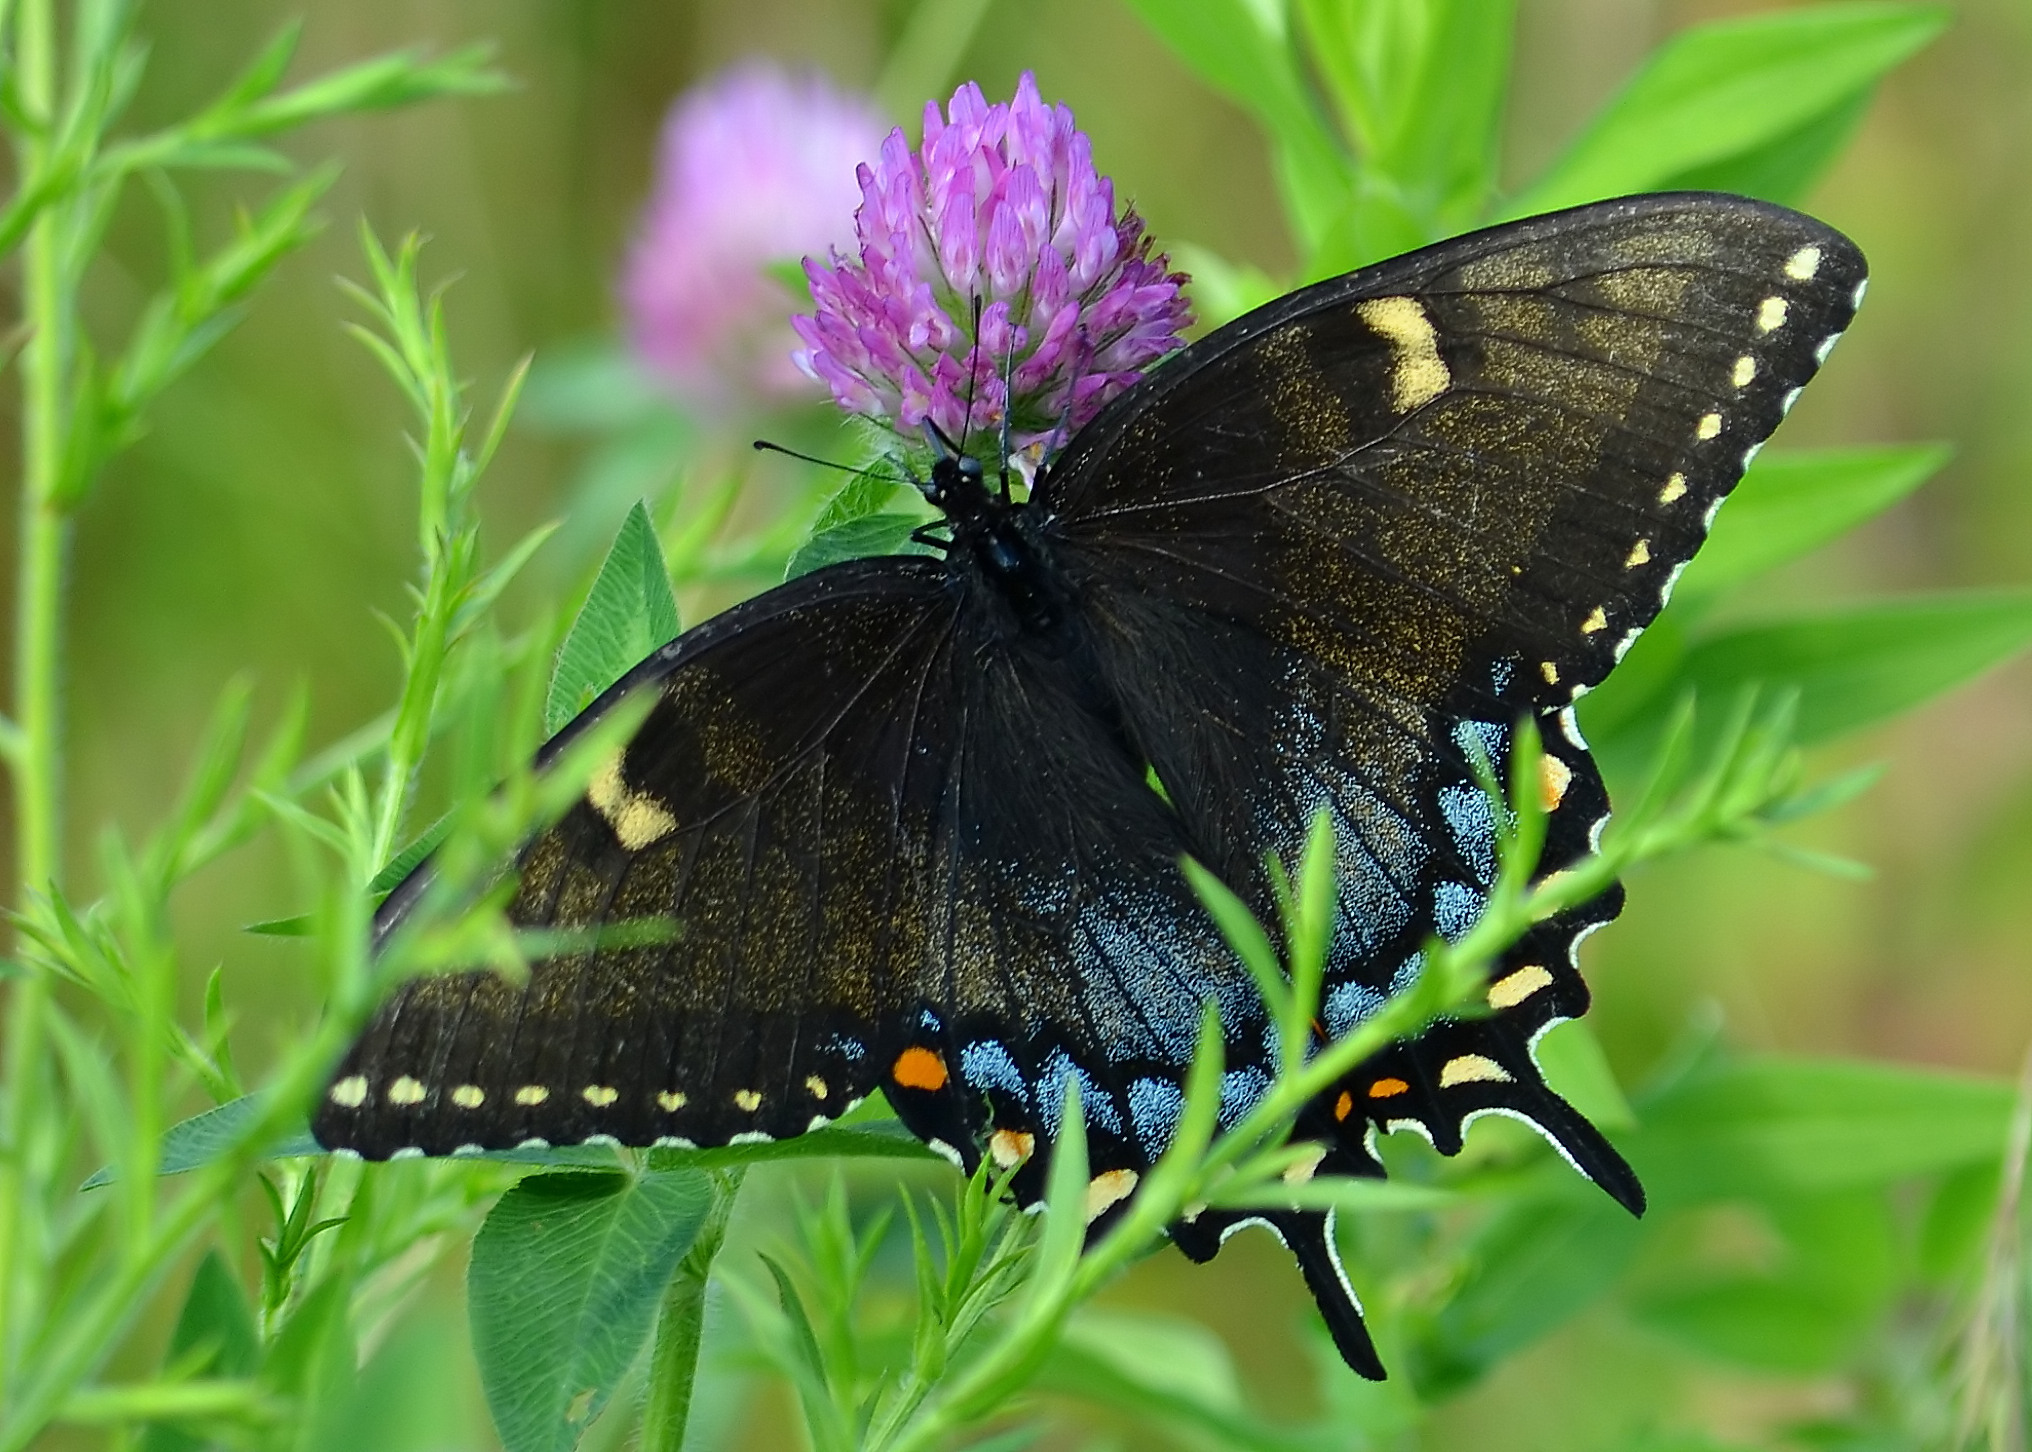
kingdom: Animalia
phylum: Arthropoda
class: Insecta
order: Lepidoptera
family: Papilionidae
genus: Papilio
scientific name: Papilio glaucus
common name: Tiger swallowtail
